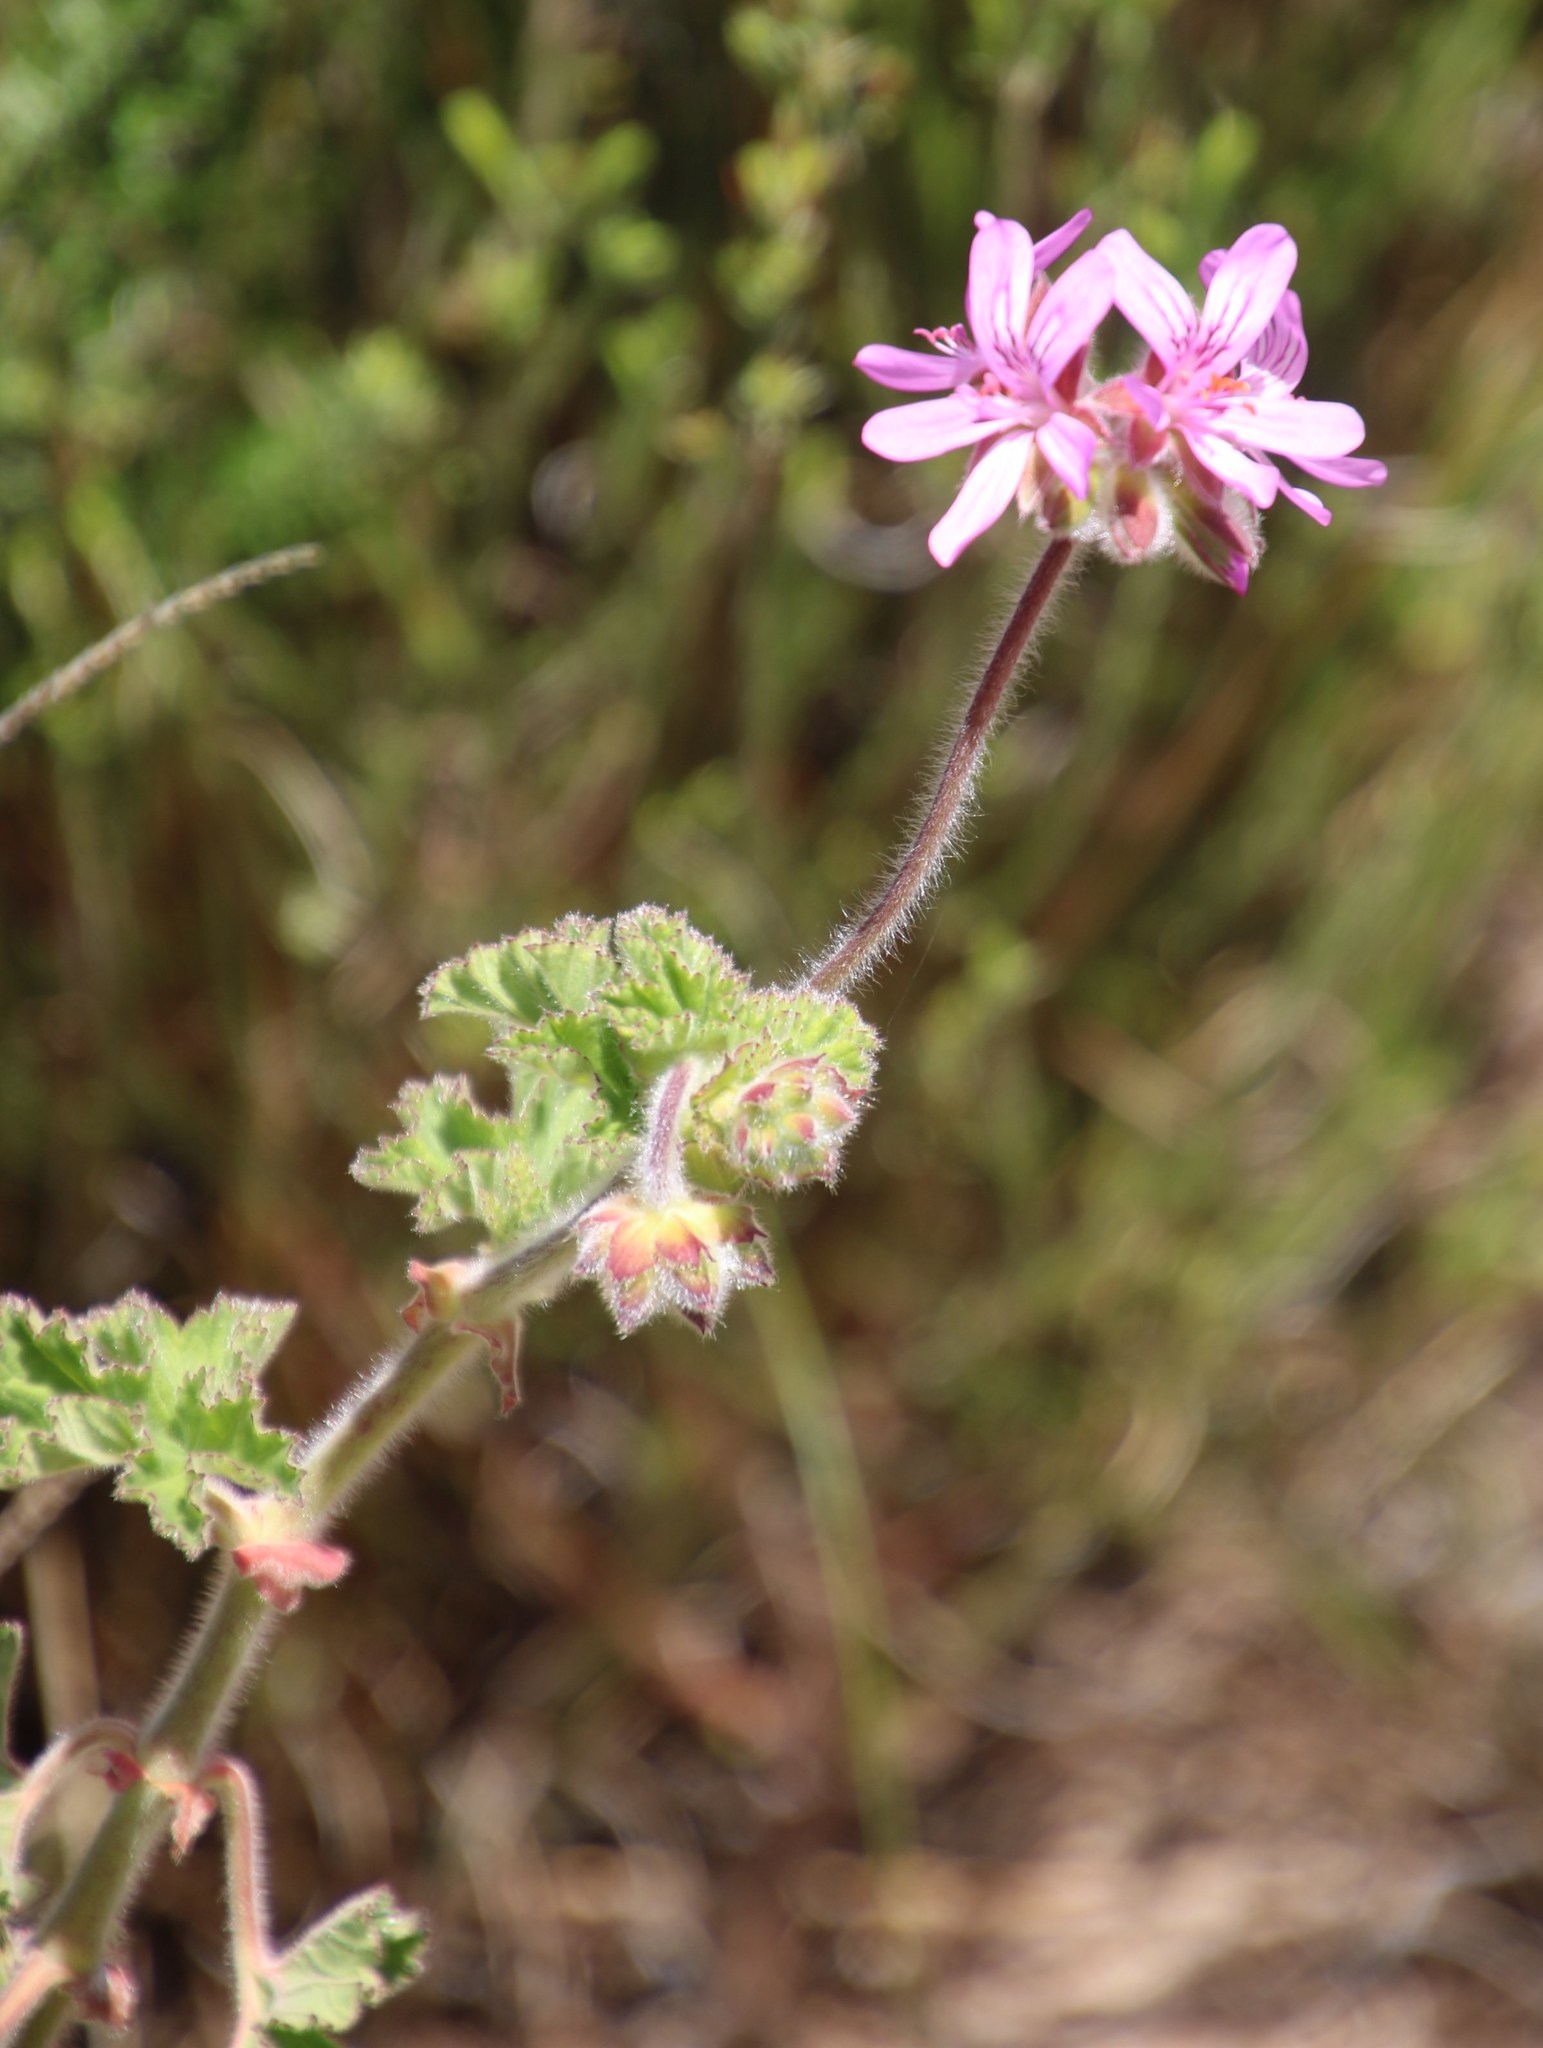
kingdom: Plantae
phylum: Tracheophyta
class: Magnoliopsida
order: Geraniales
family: Geraniaceae
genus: Pelargonium
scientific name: Pelargonium capitatum
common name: Rose scented geranium
